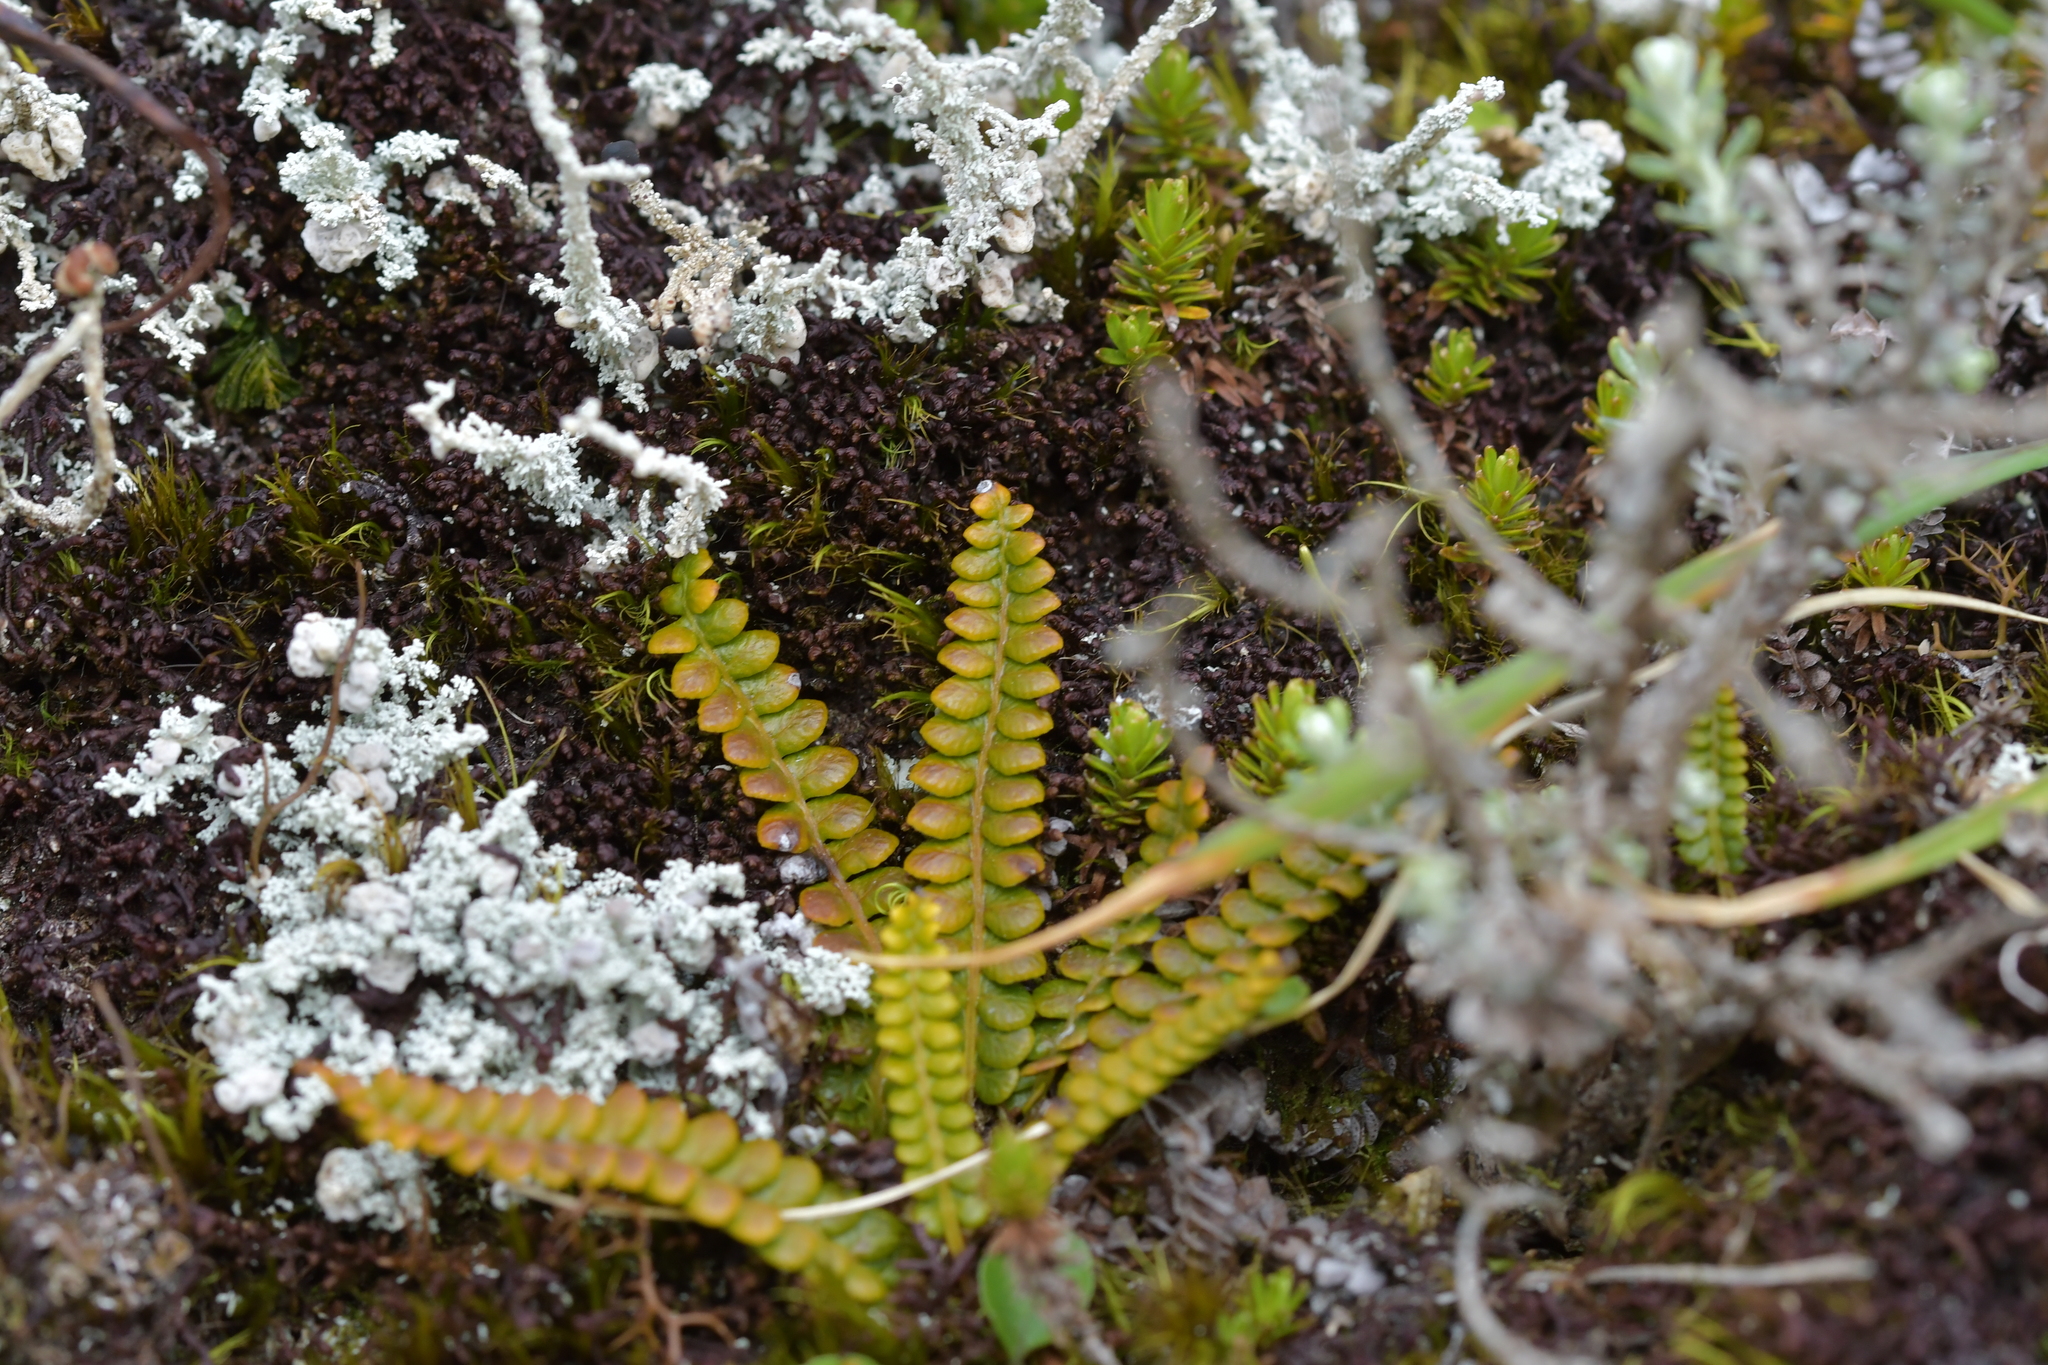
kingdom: Plantae
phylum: Tracheophyta
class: Polypodiopsida
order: Polypodiales
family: Blechnaceae
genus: Austroblechnum
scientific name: Austroblechnum penna-marina
